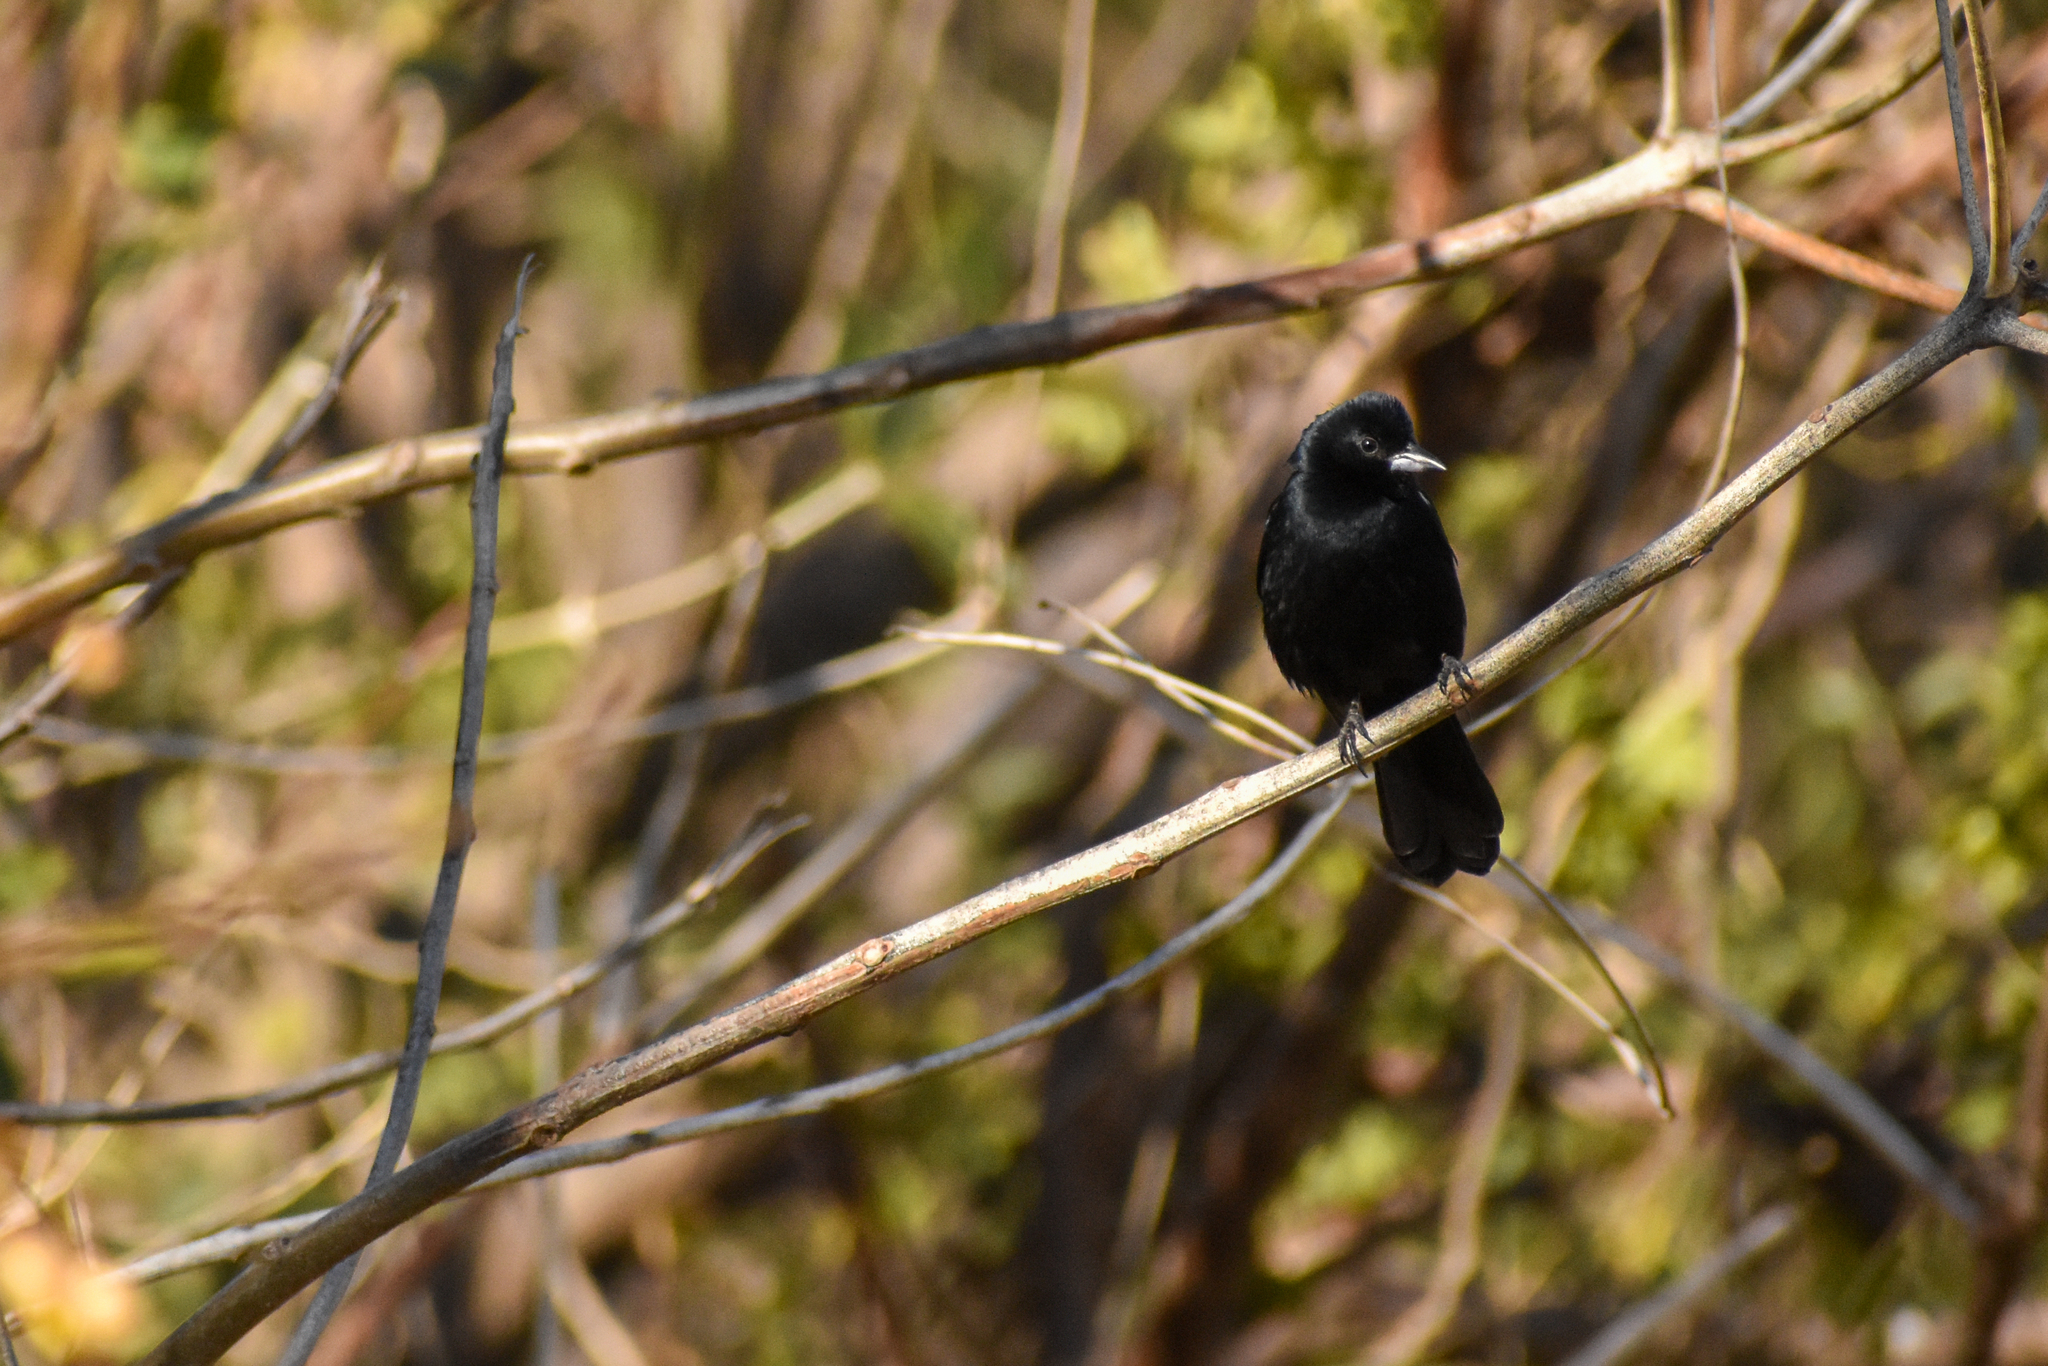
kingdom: Animalia
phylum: Chordata
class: Aves
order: Passeriformes
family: Thraupidae
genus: Tachyphonus
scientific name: Tachyphonus rufus
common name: White-lined tanager
